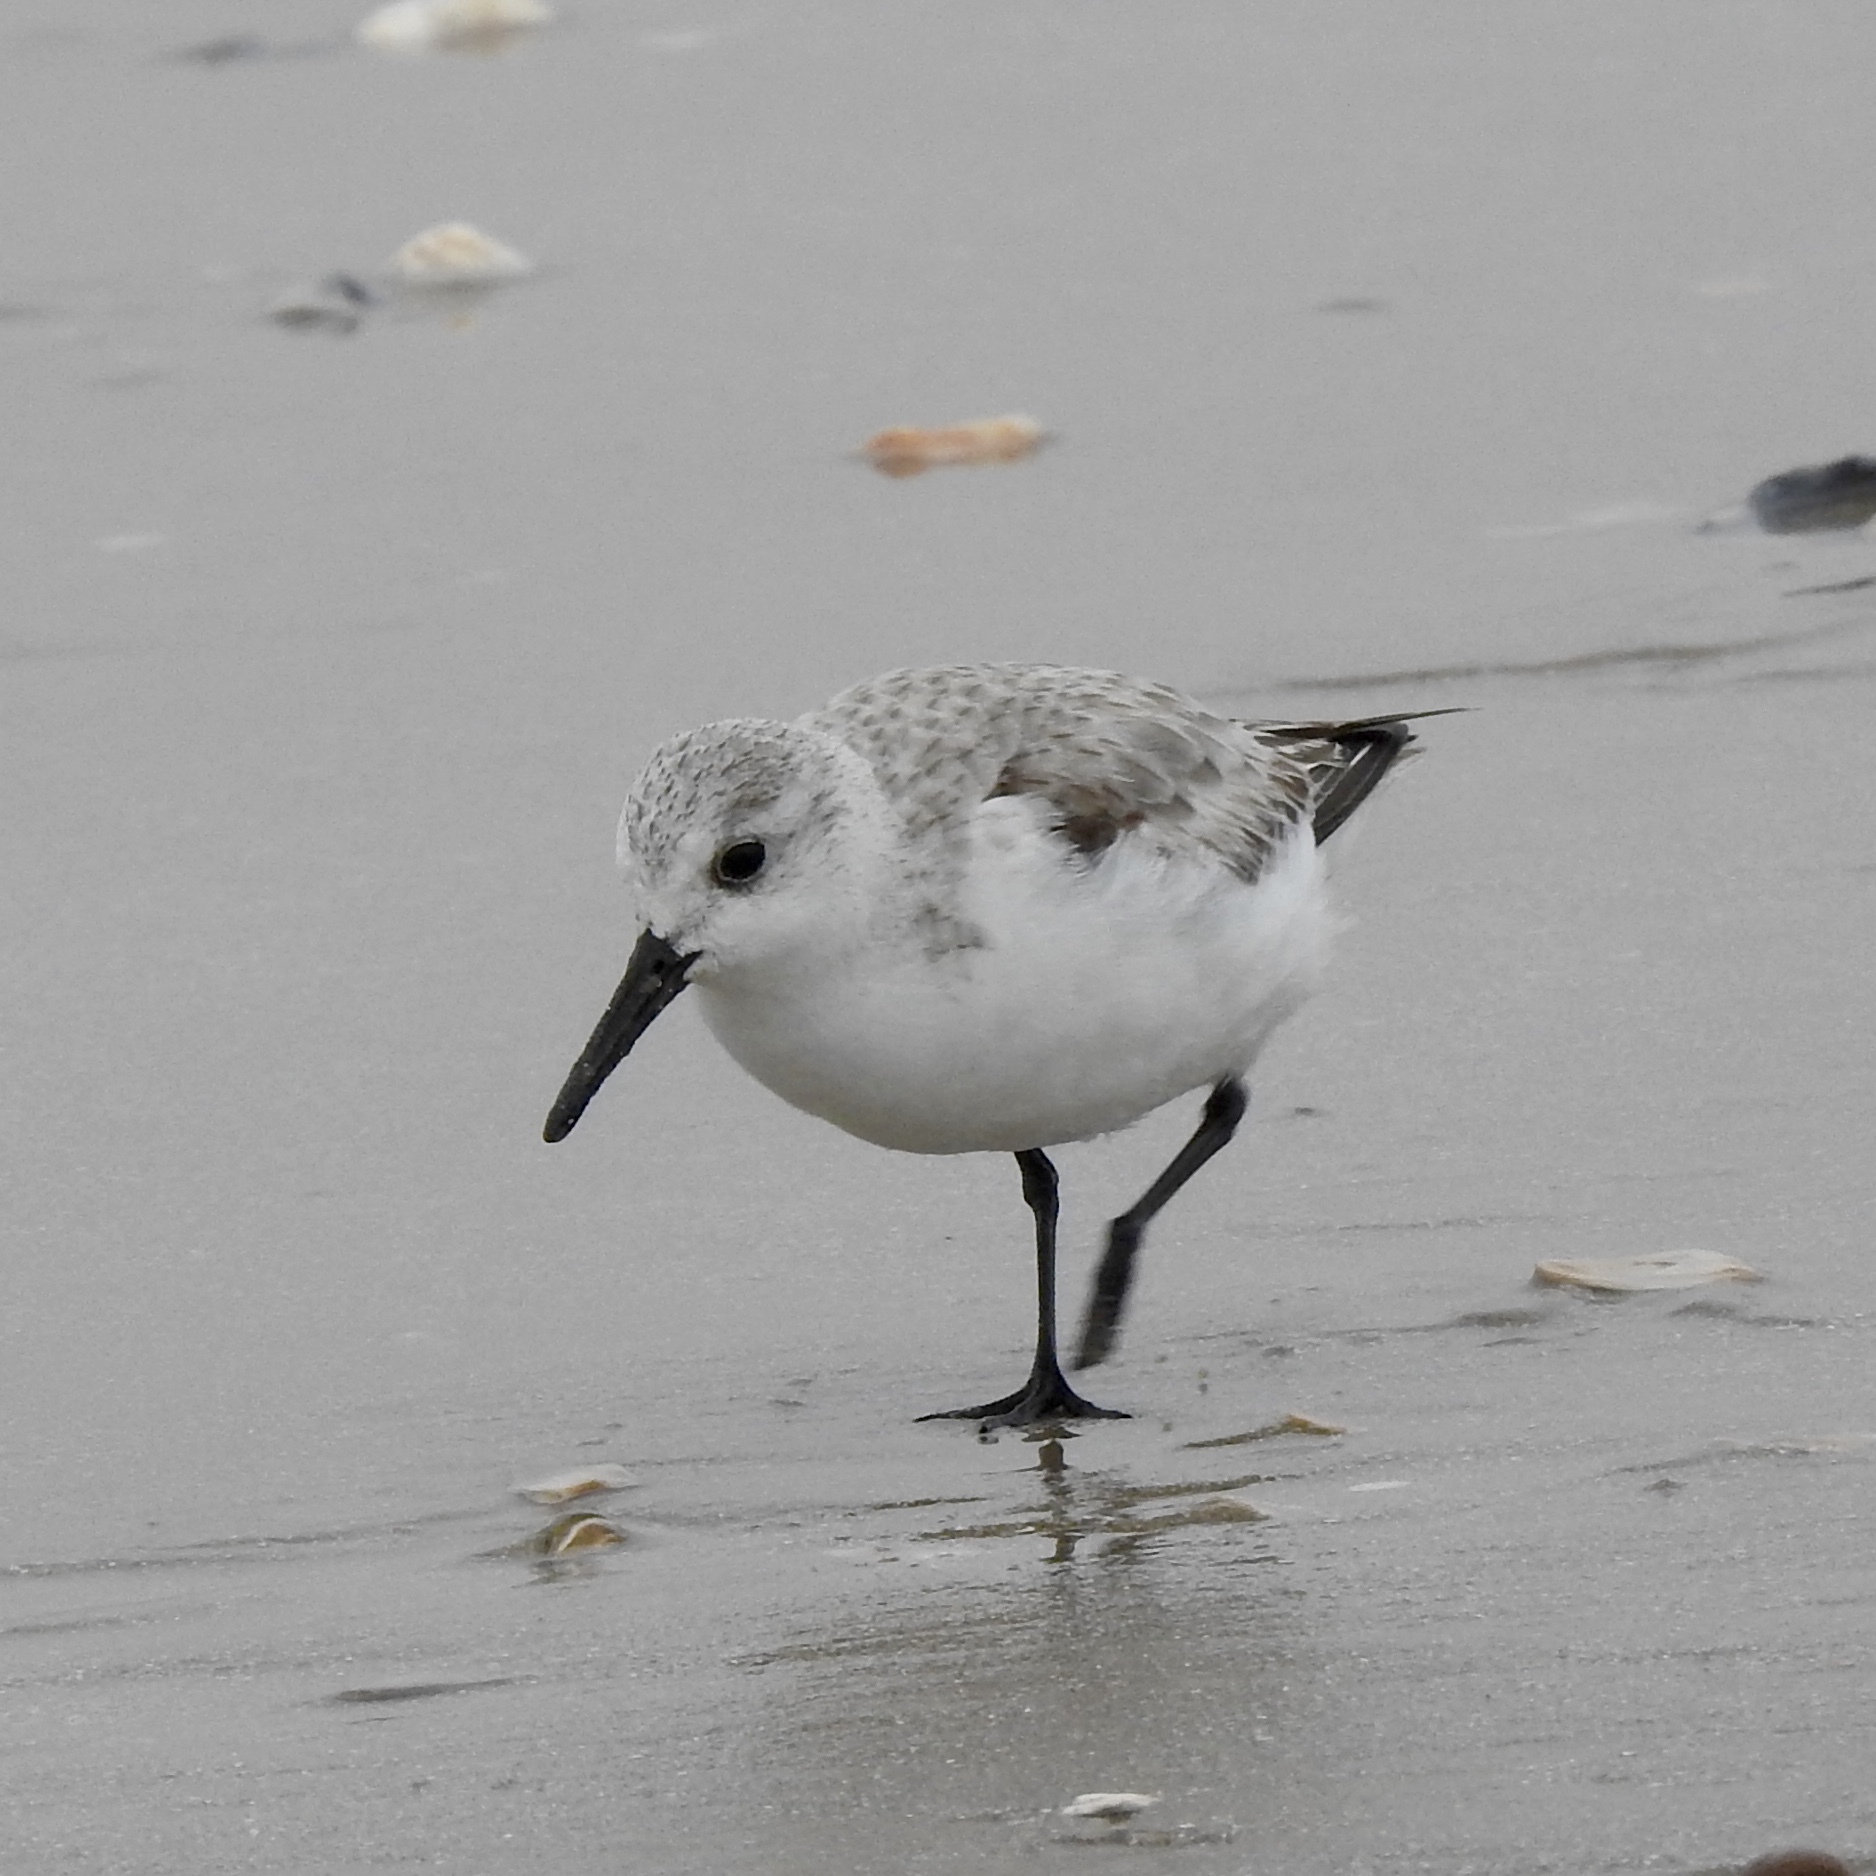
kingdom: Animalia
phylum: Chordata
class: Aves
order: Charadriiformes
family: Scolopacidae
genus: Calidris
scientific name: Calidris alba
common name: Sanderling
